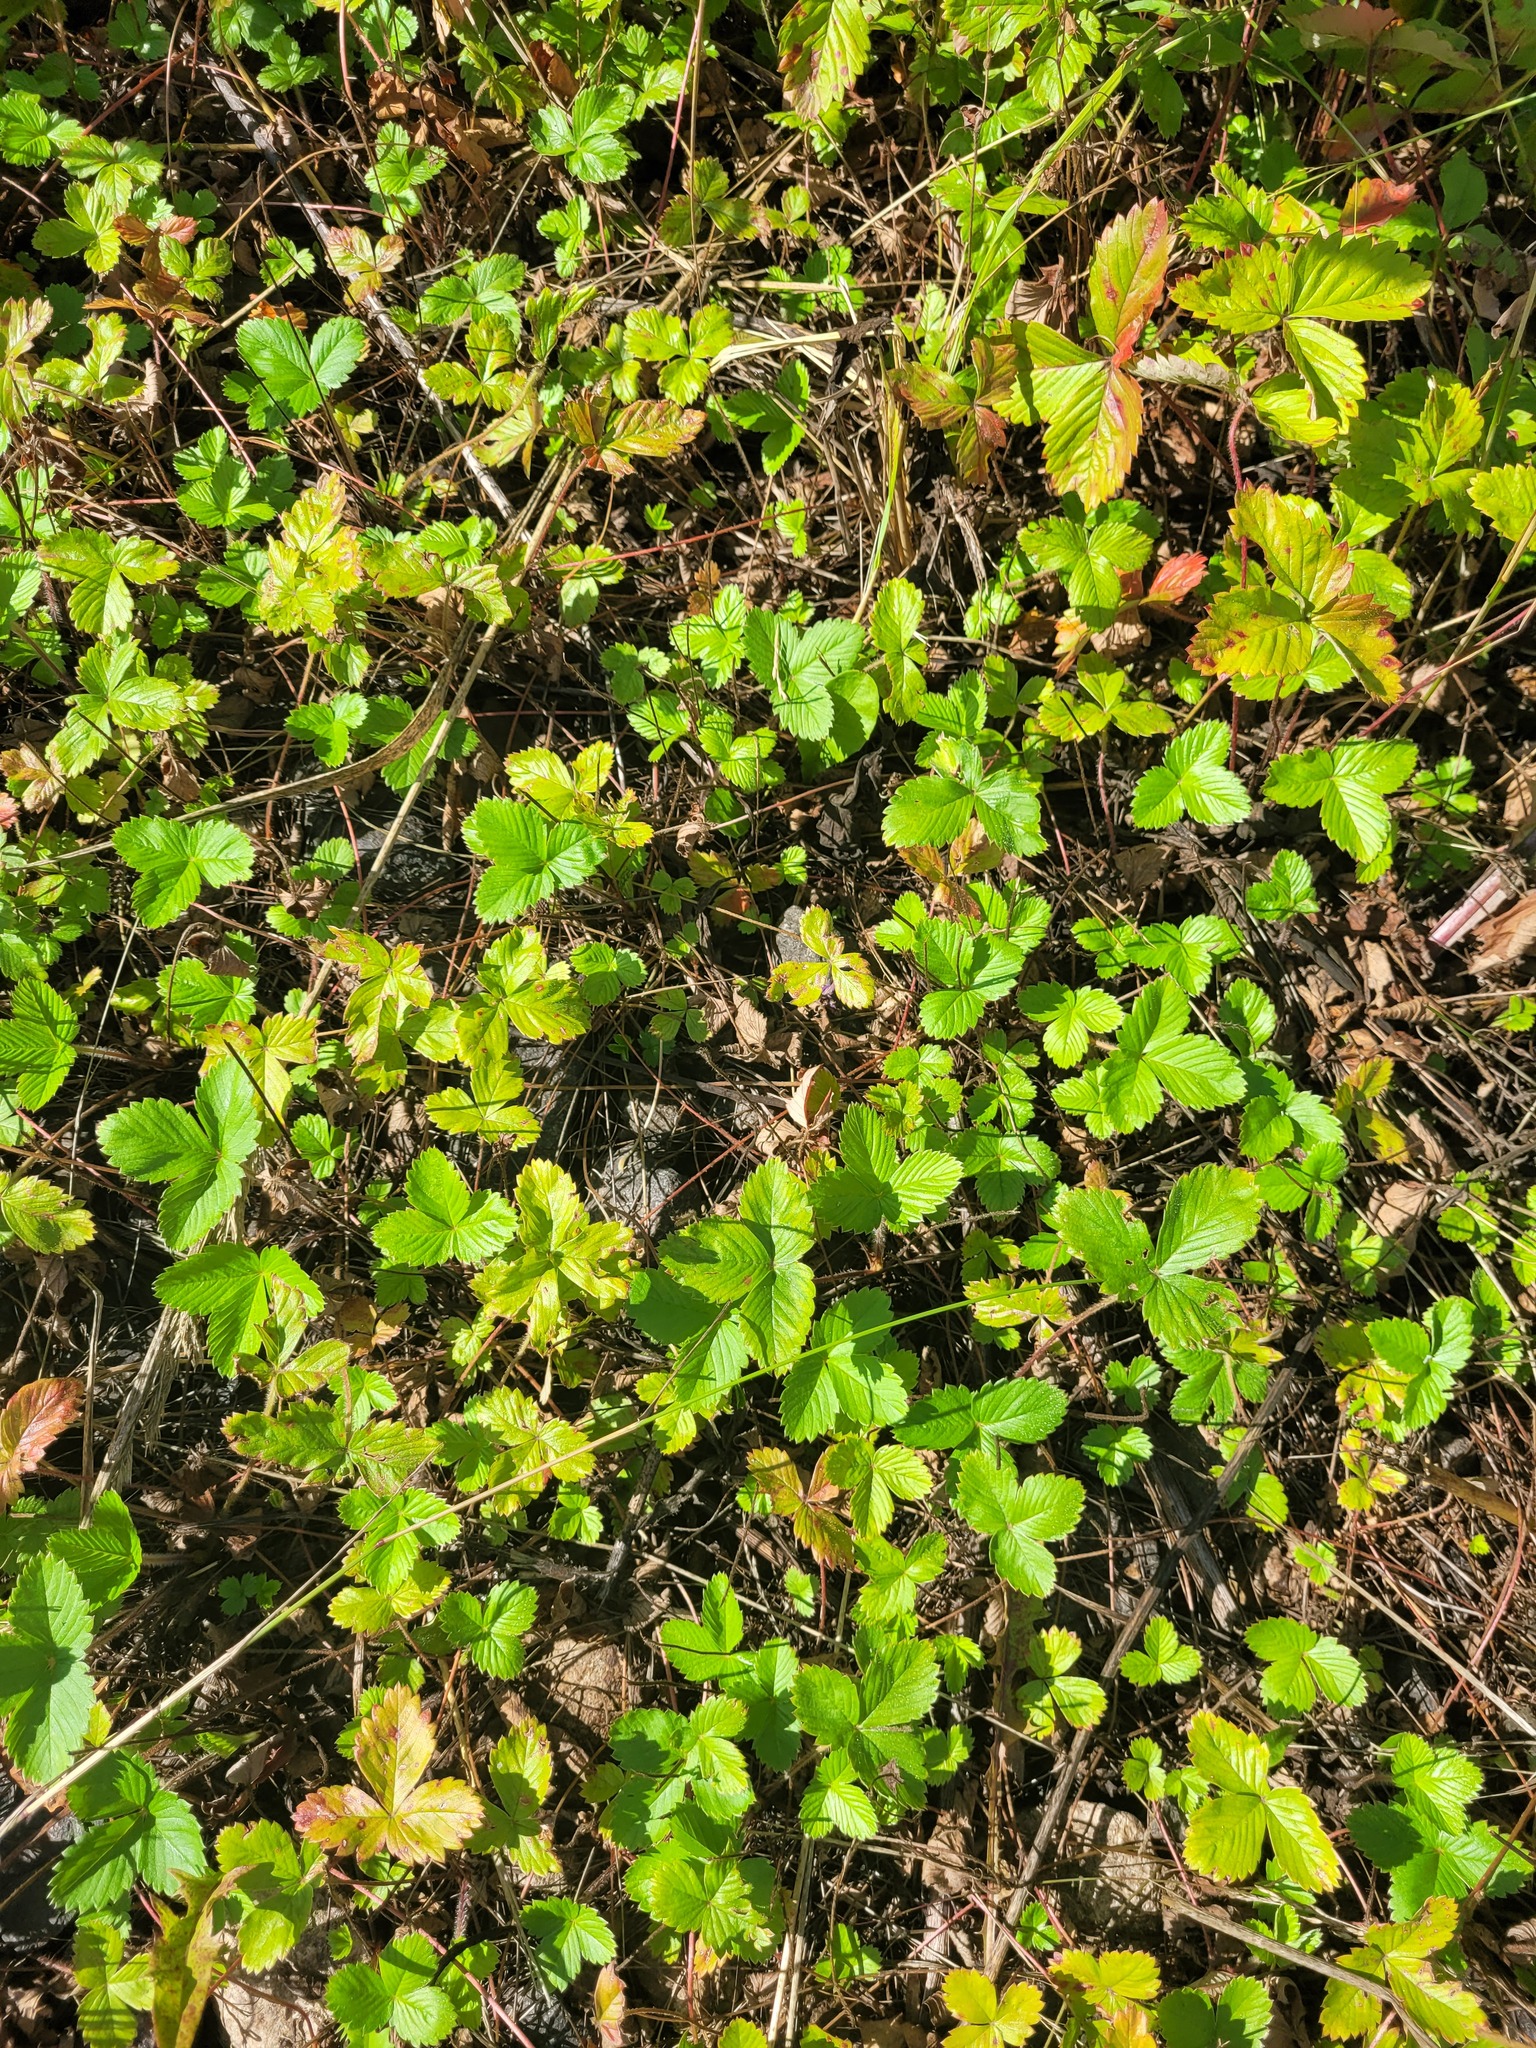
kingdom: Plantae
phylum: Tracheophyta
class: Magnoliopsida
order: Rosales
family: Rosaceae
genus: Fragaria
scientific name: Fragaria viridis
